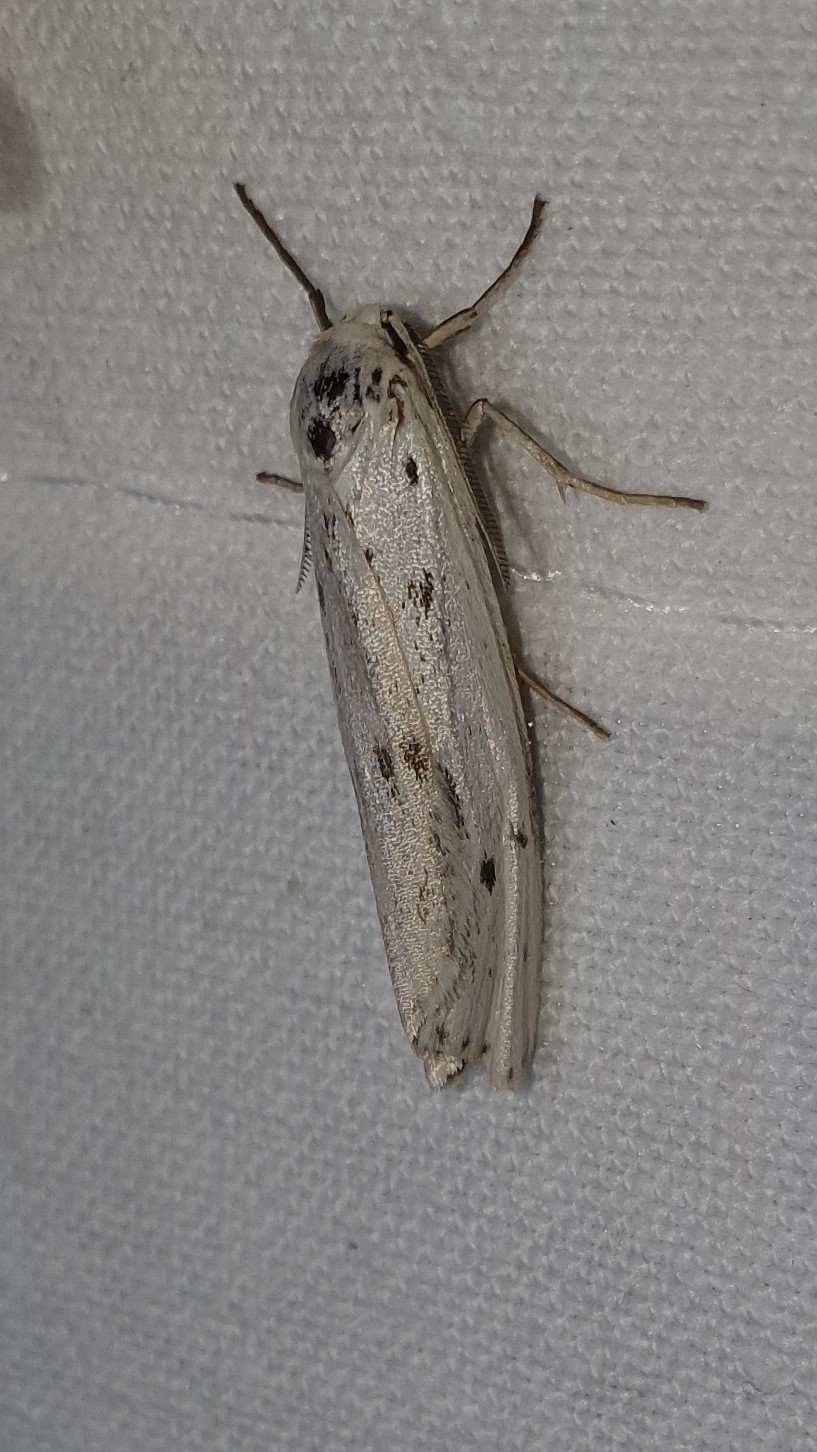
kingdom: Animalia
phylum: Arthropoda
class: Insecta
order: Lepidoptera
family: Erebidae
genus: Coscinia
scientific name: Coscinia cribraria
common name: Speckled footman
